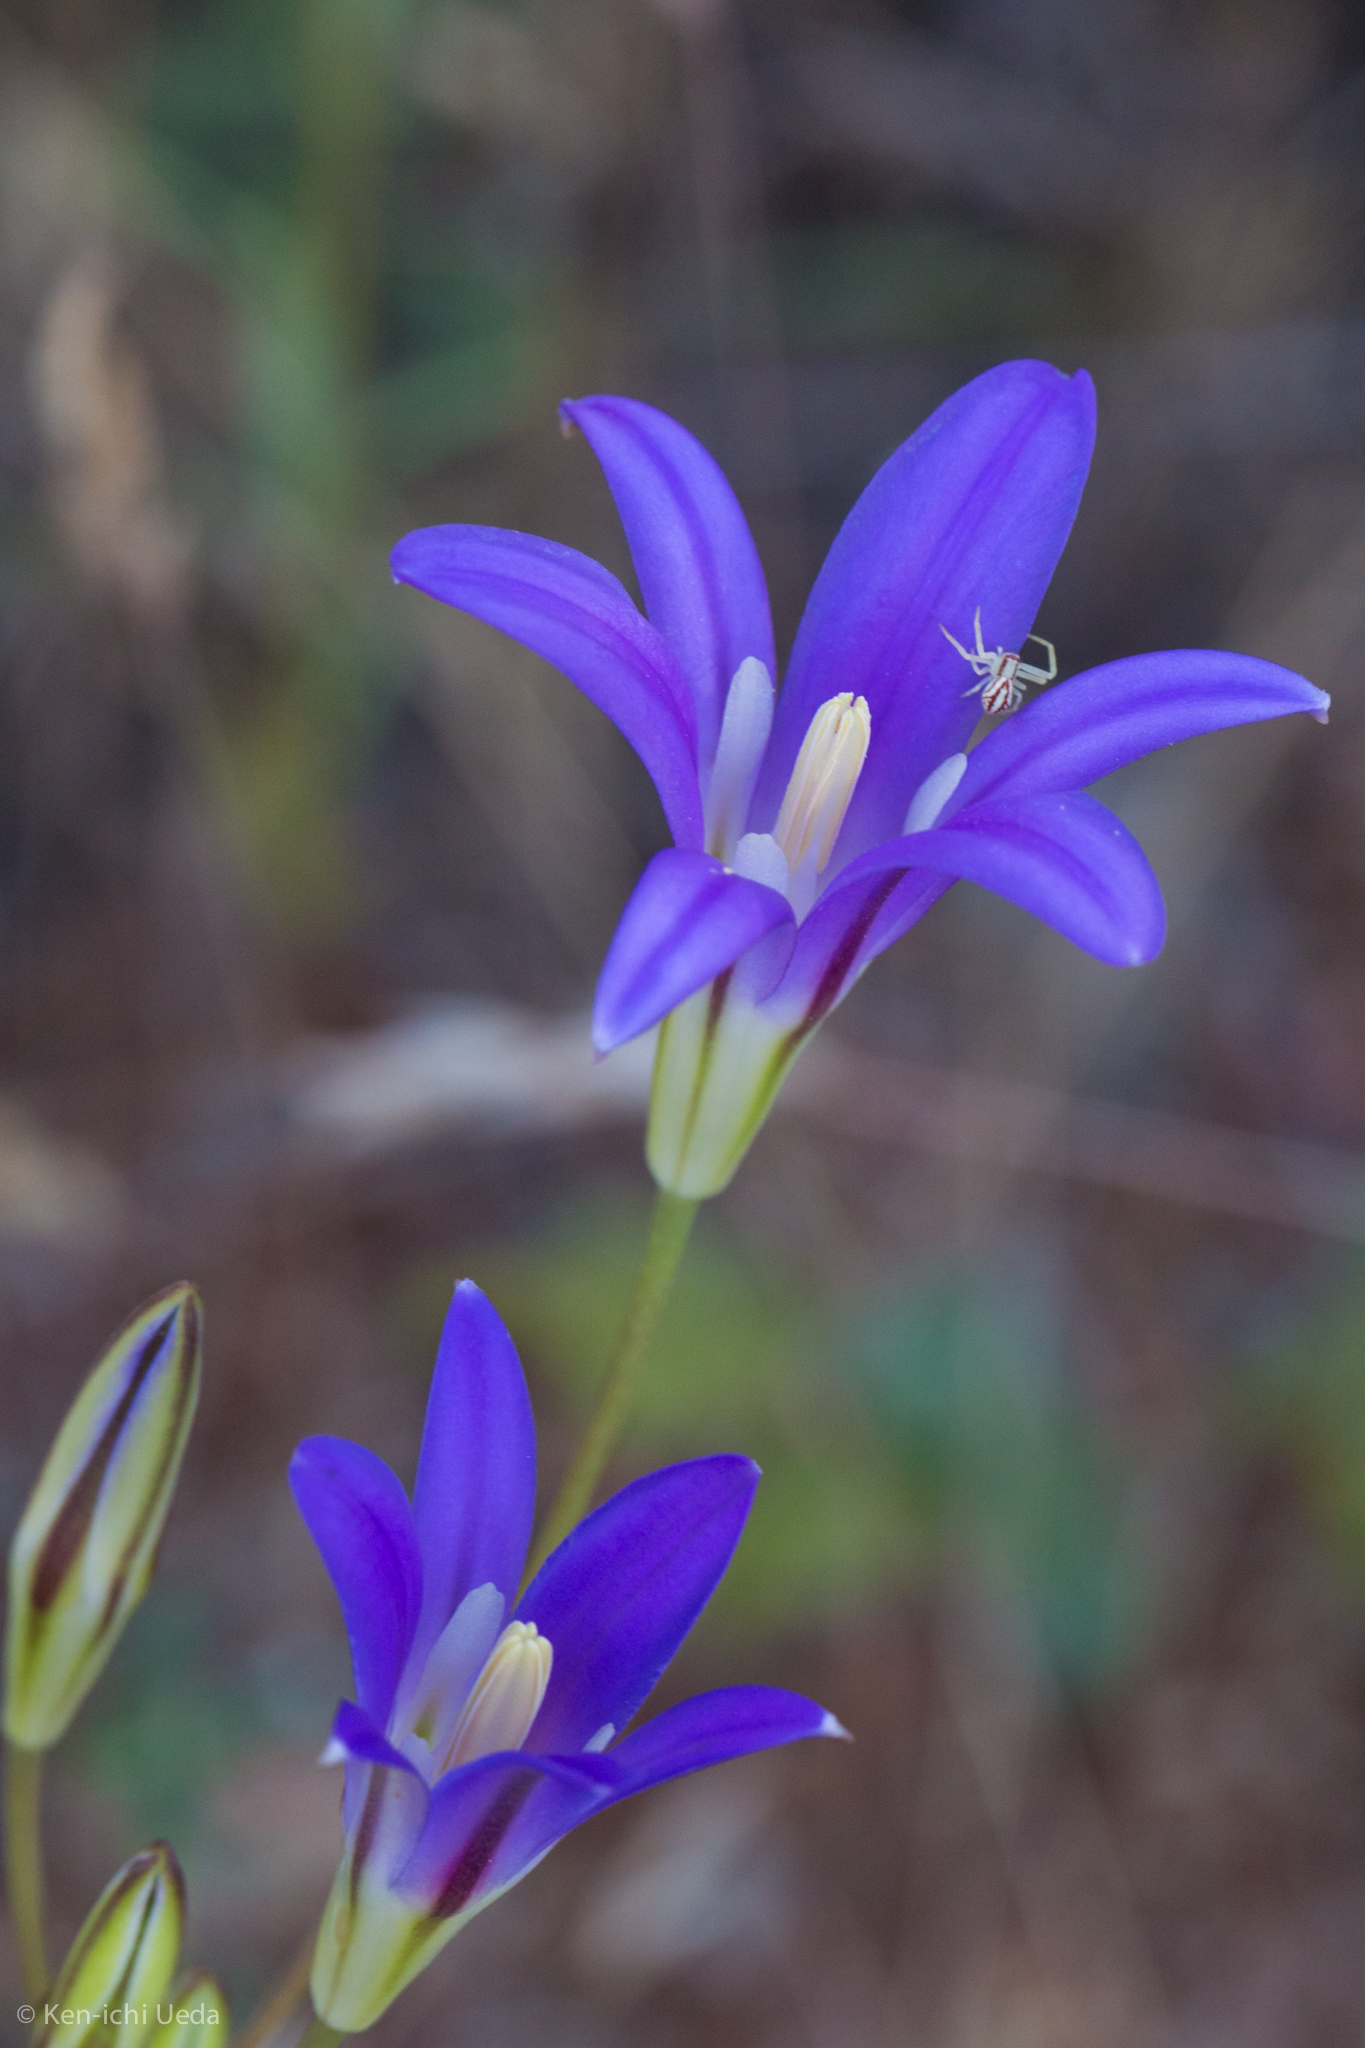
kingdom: Plantae
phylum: Tracheophyta
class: Liliopsida
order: Asparagales
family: Asparagaceae
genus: Brodiaea
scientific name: Brodiaea elegans
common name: Elegant cluster-lily
